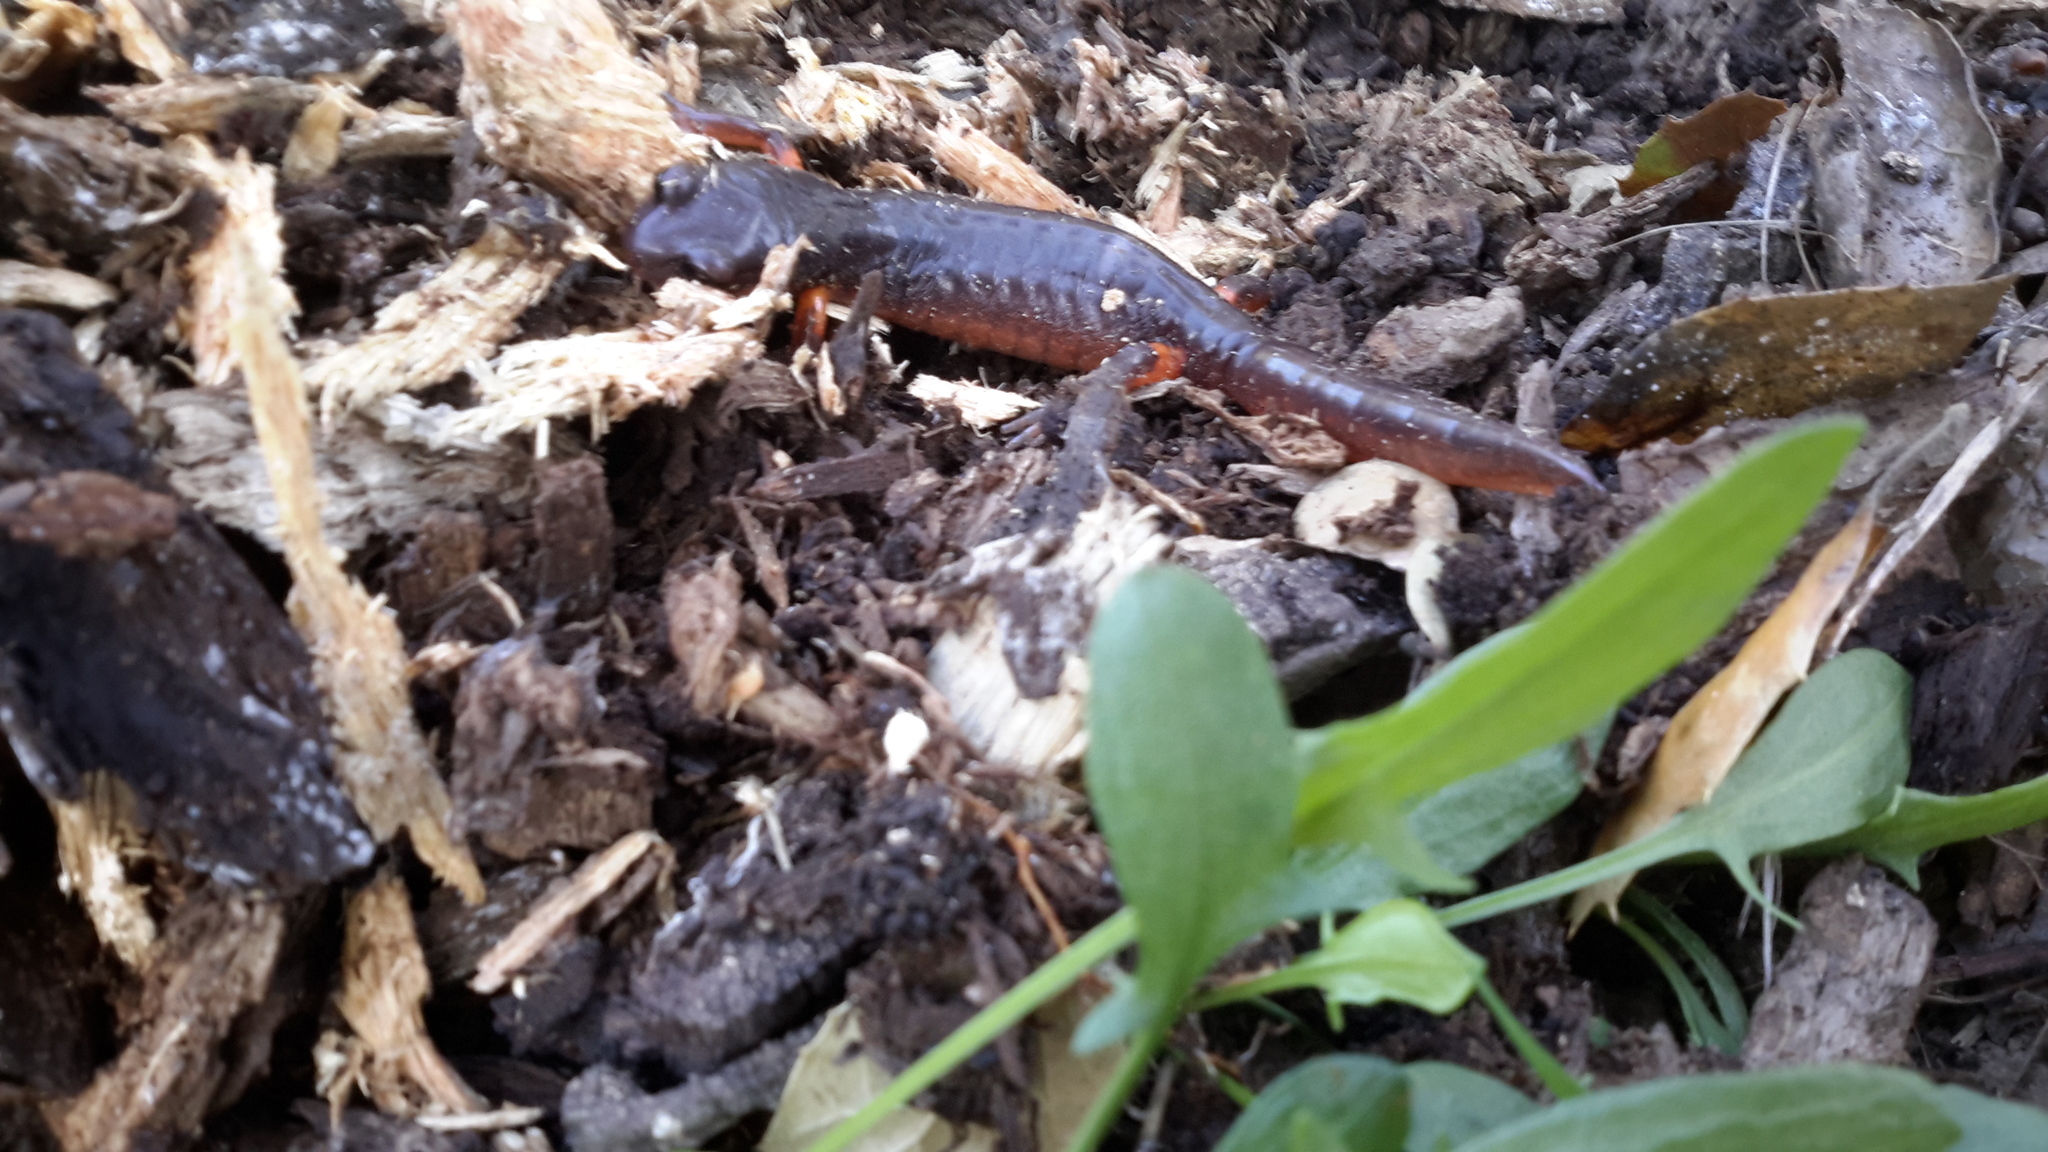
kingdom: Animalia
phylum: Chordata
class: Amphibia
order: Caudata
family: Plethodontidae
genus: Ensatina
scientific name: Ensatina eschscholtzii
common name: Ensatina
